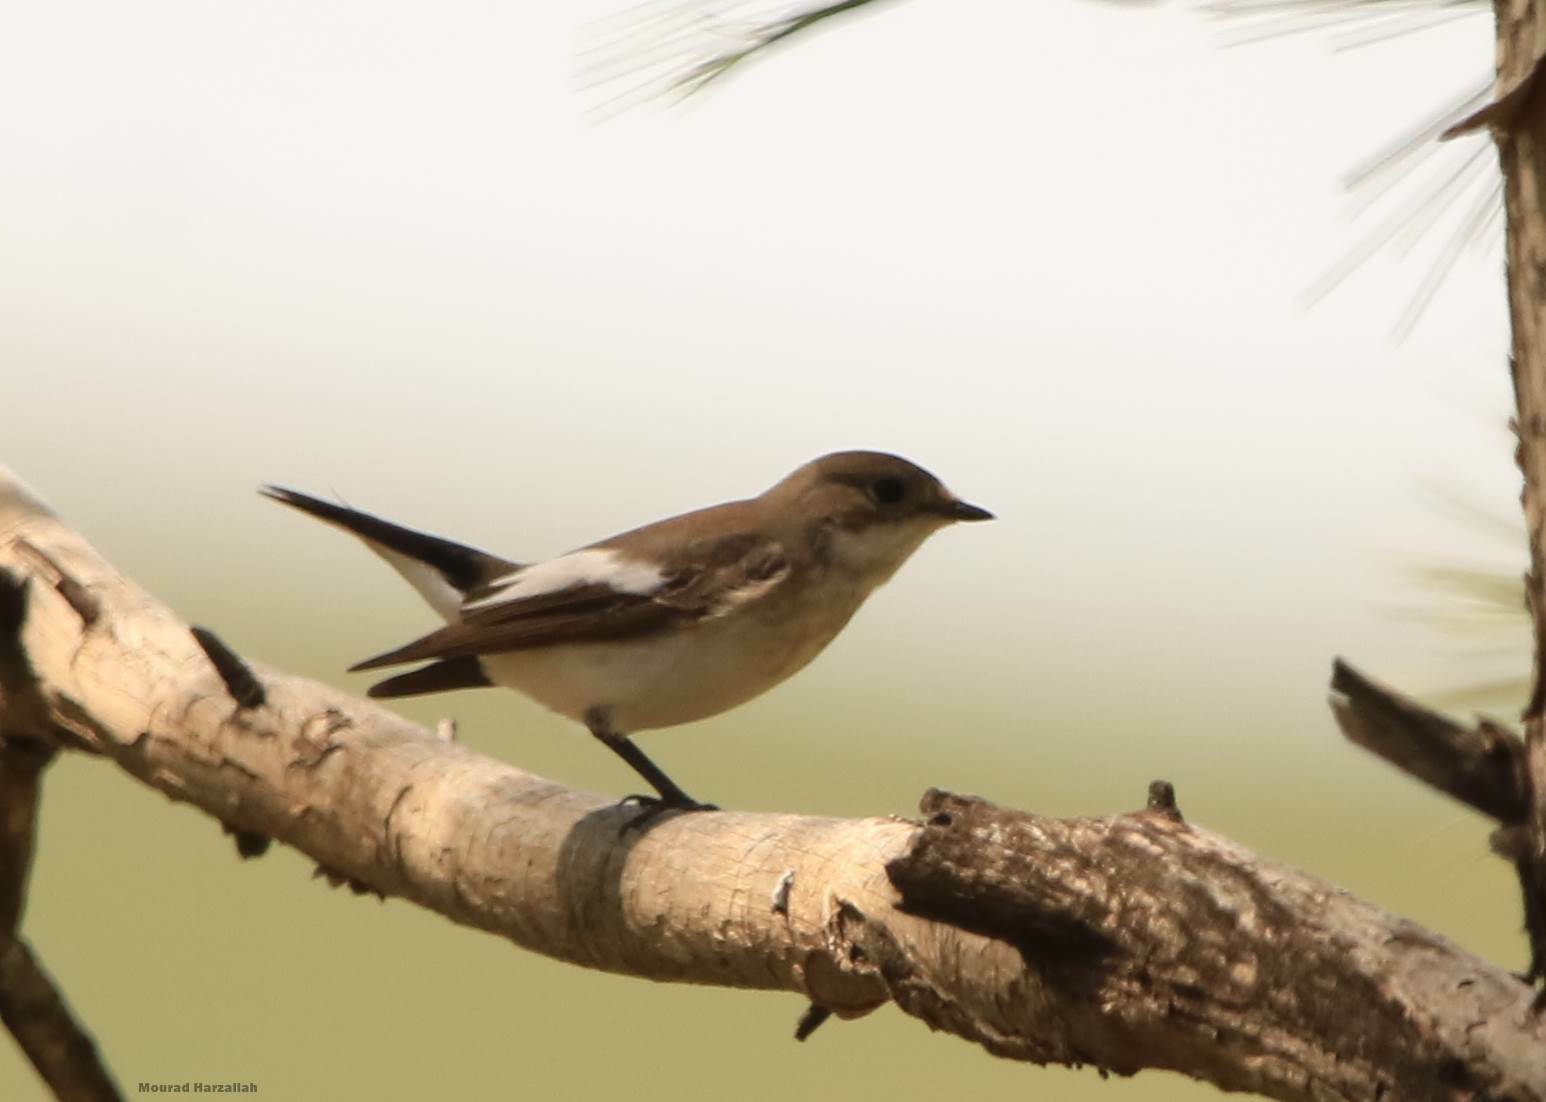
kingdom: Animalia
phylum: Chordata
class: Aves
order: Passeriformes
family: Muscicapidae
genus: Ficedula
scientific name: Ficedula hypoleuca
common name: European pied flycatcher
